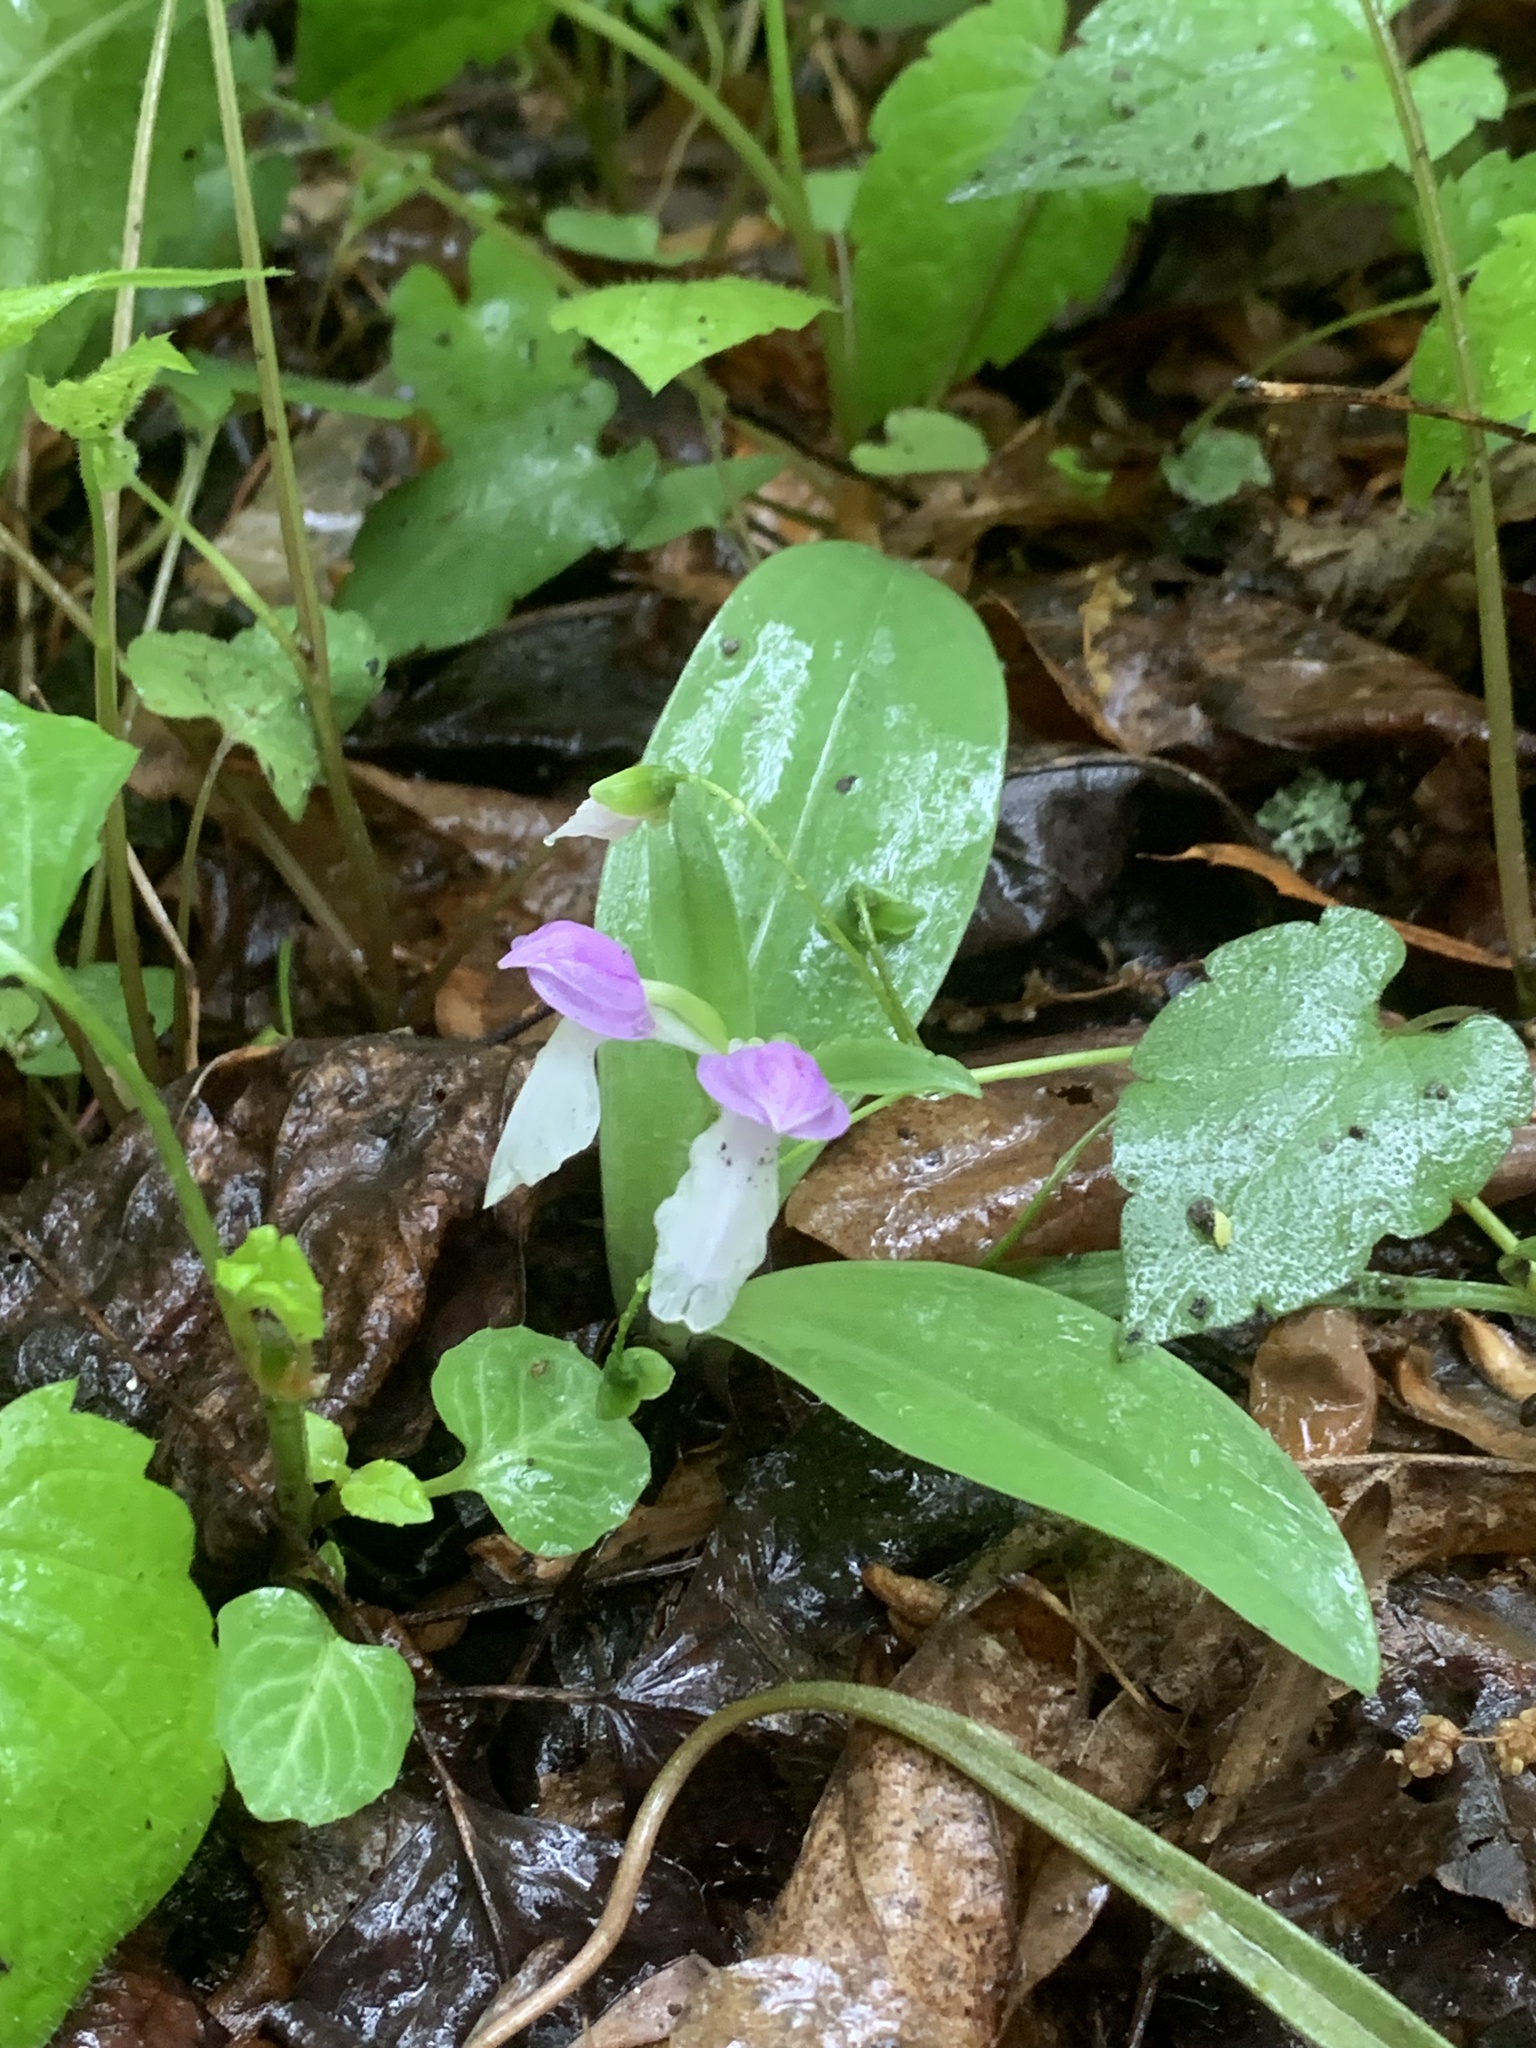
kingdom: Plantae
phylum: Tracheophyta
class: Liliopsida
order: Asparagales
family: Orchidaceae
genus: Galearis
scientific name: Galearis spectabilis
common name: Purple-hooded orchis
